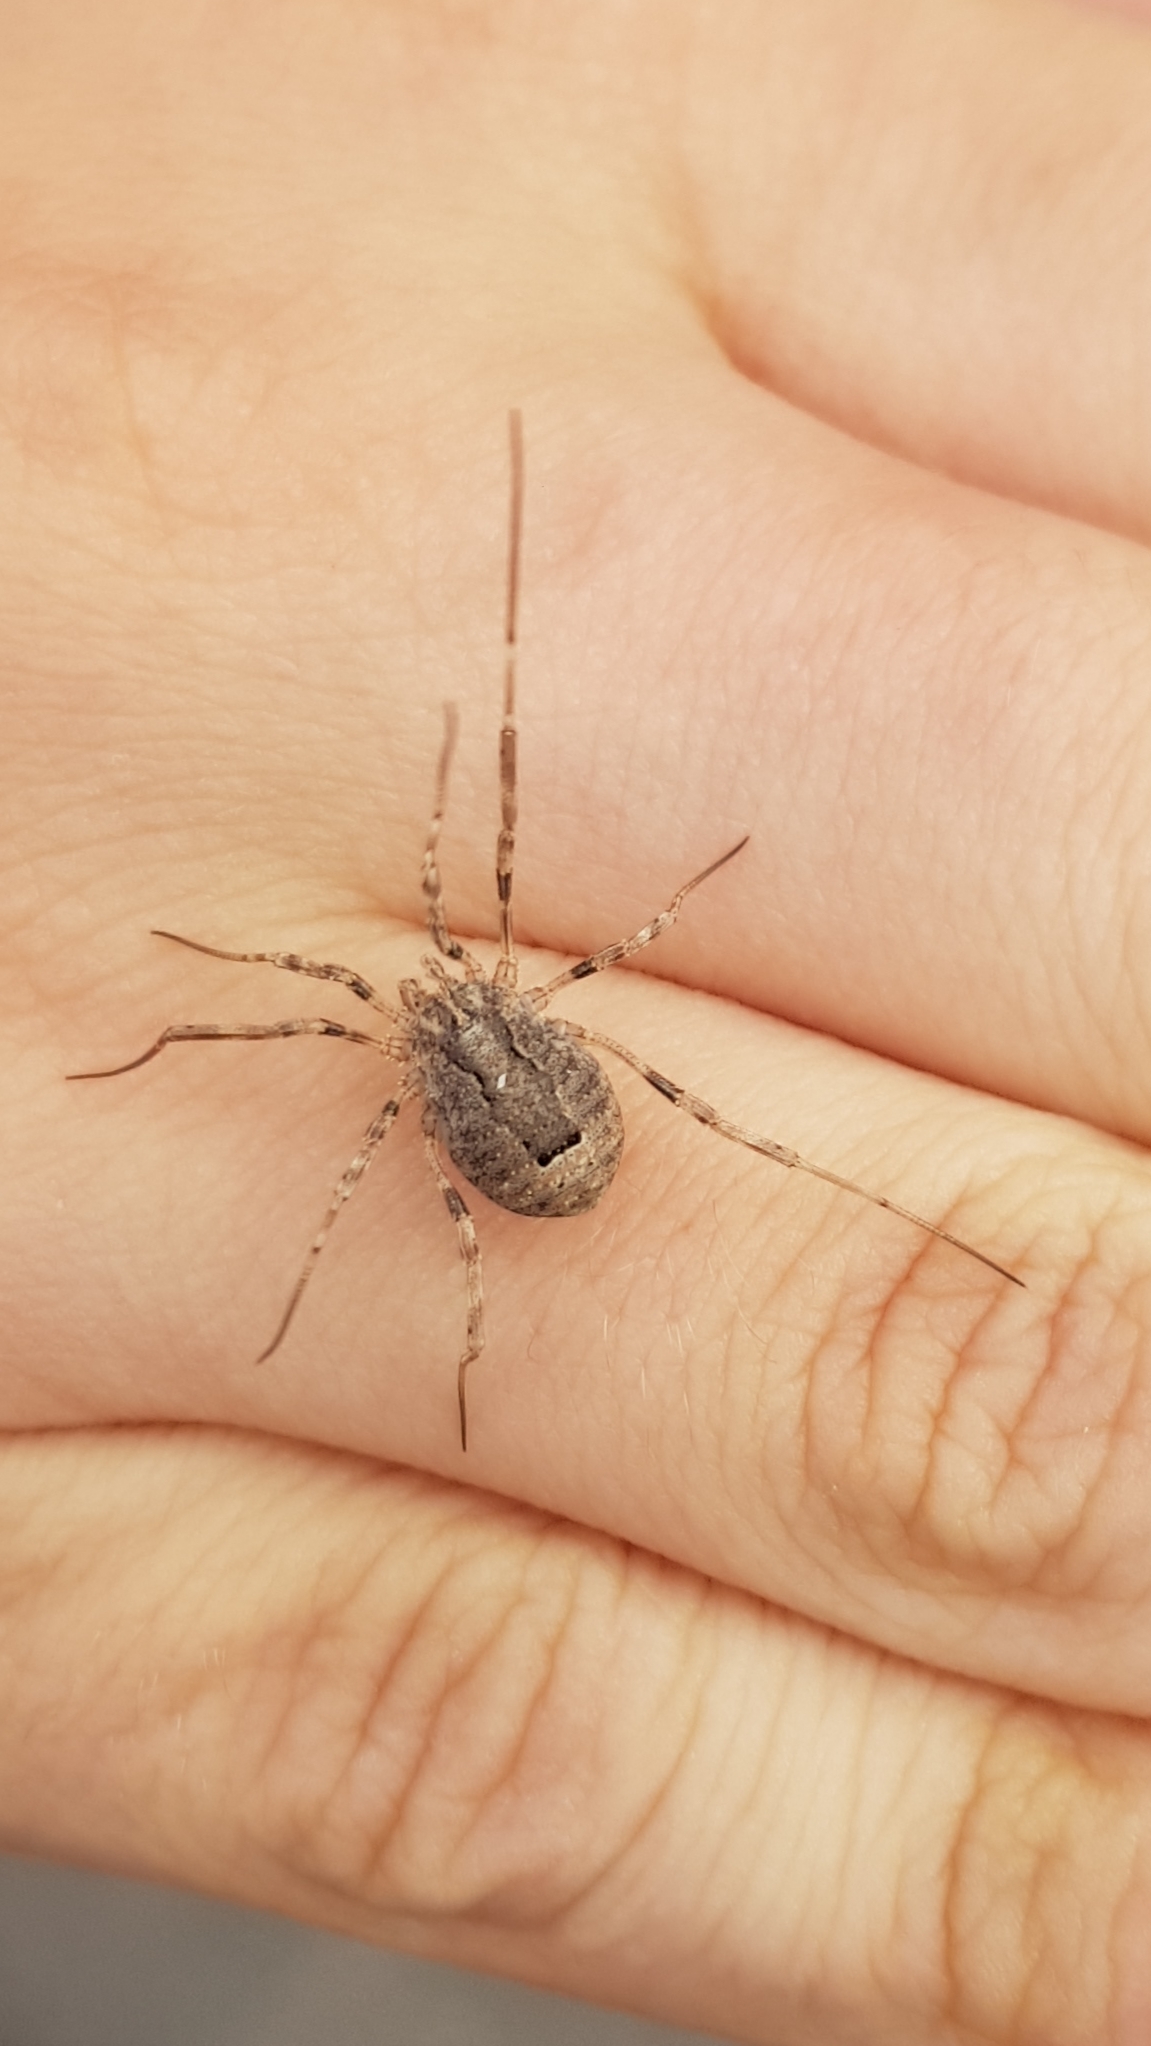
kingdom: Animalia
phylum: Arthropoda
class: Arachnida
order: Opiliones
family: Phalangiidae
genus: Odiellus
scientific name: Odiellus spinosus
